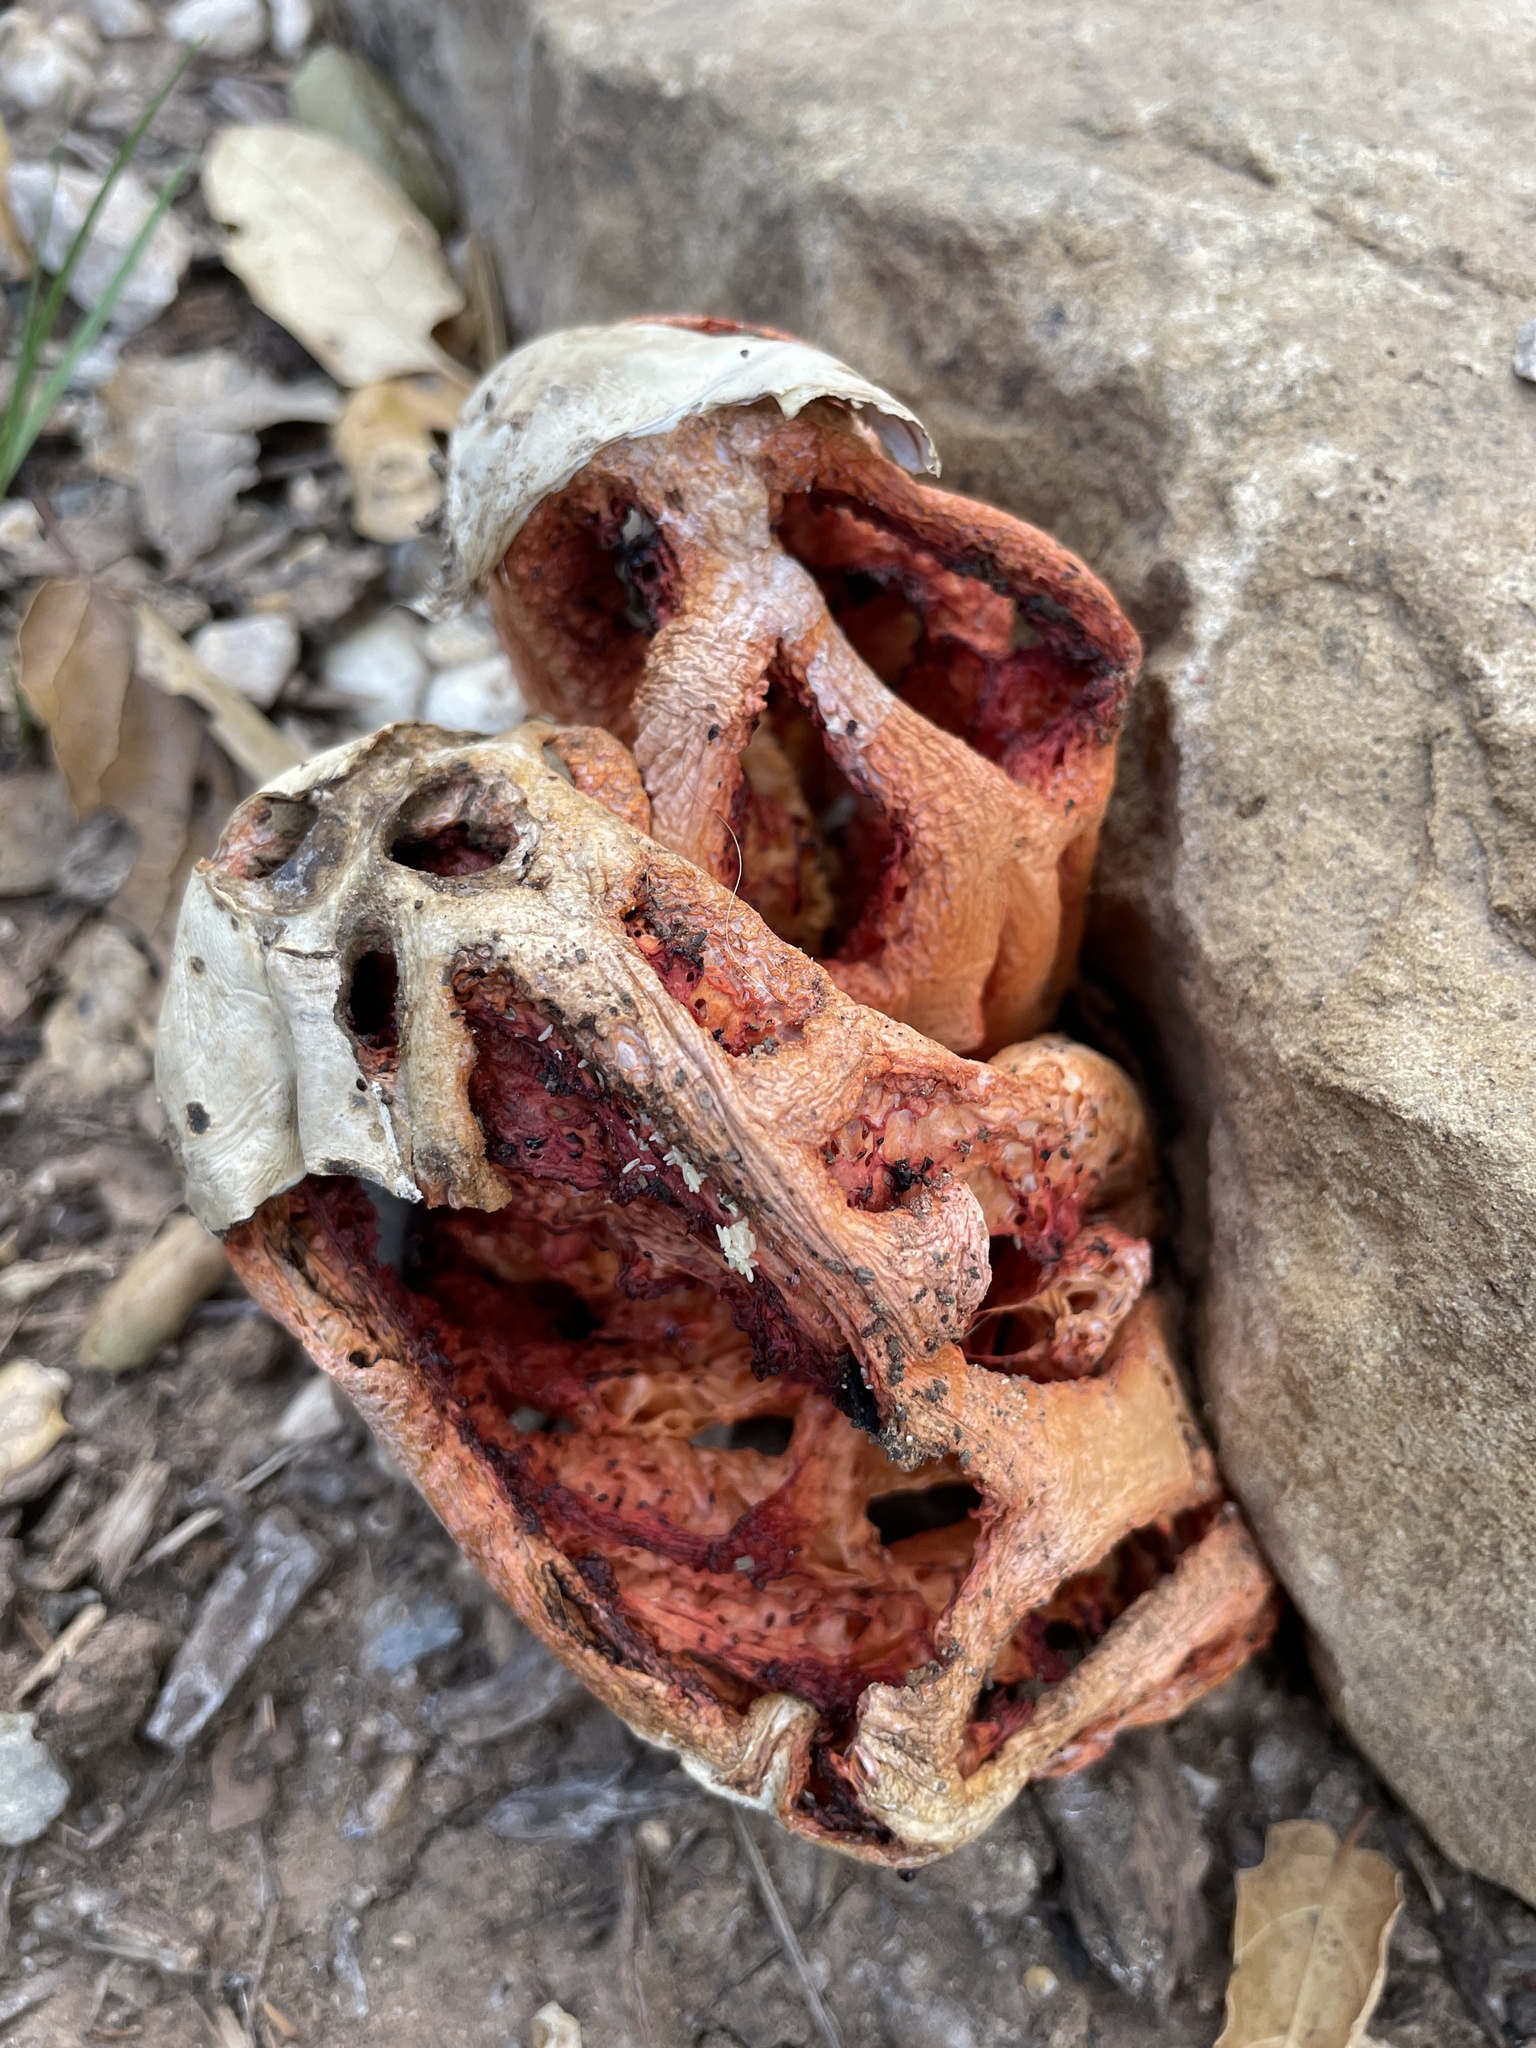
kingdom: Fungi
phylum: Basidiomycota
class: Agaricomycetes
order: Phallales
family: Phallaceae
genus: Clathrus
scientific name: Clathrus ruber
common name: Red cage
